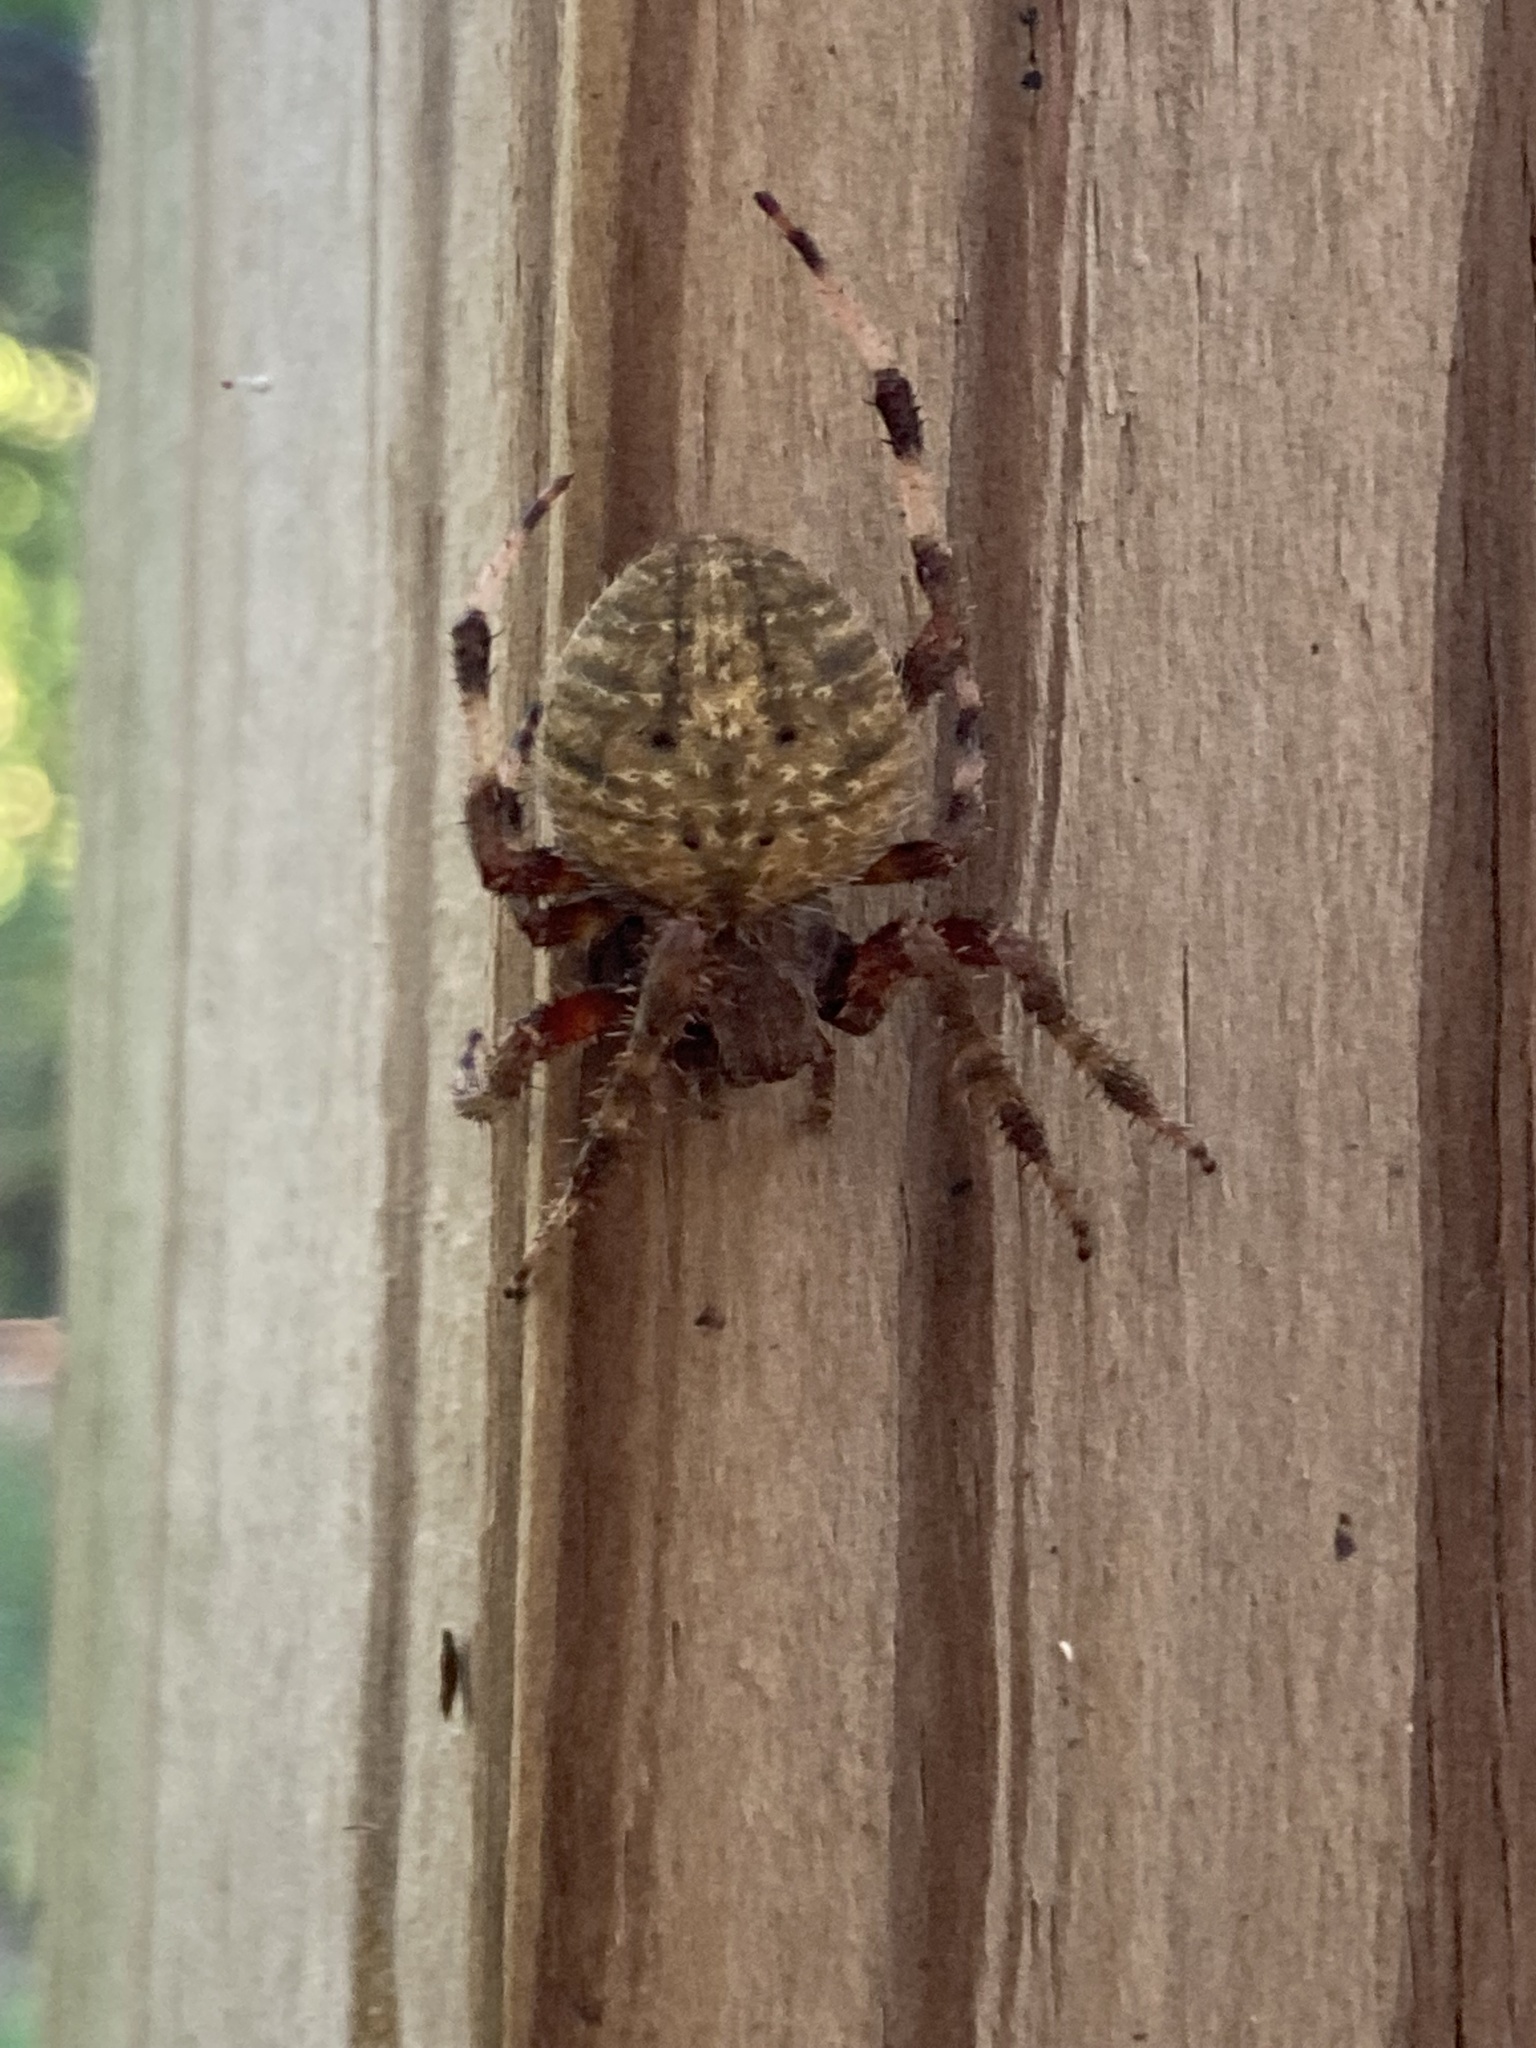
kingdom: Animalia
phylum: Arthropoda
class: Arachnida
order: Araneae
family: Araneidae
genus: Neoscona
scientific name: Neoscona crucifera
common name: Spotted orbweaver
